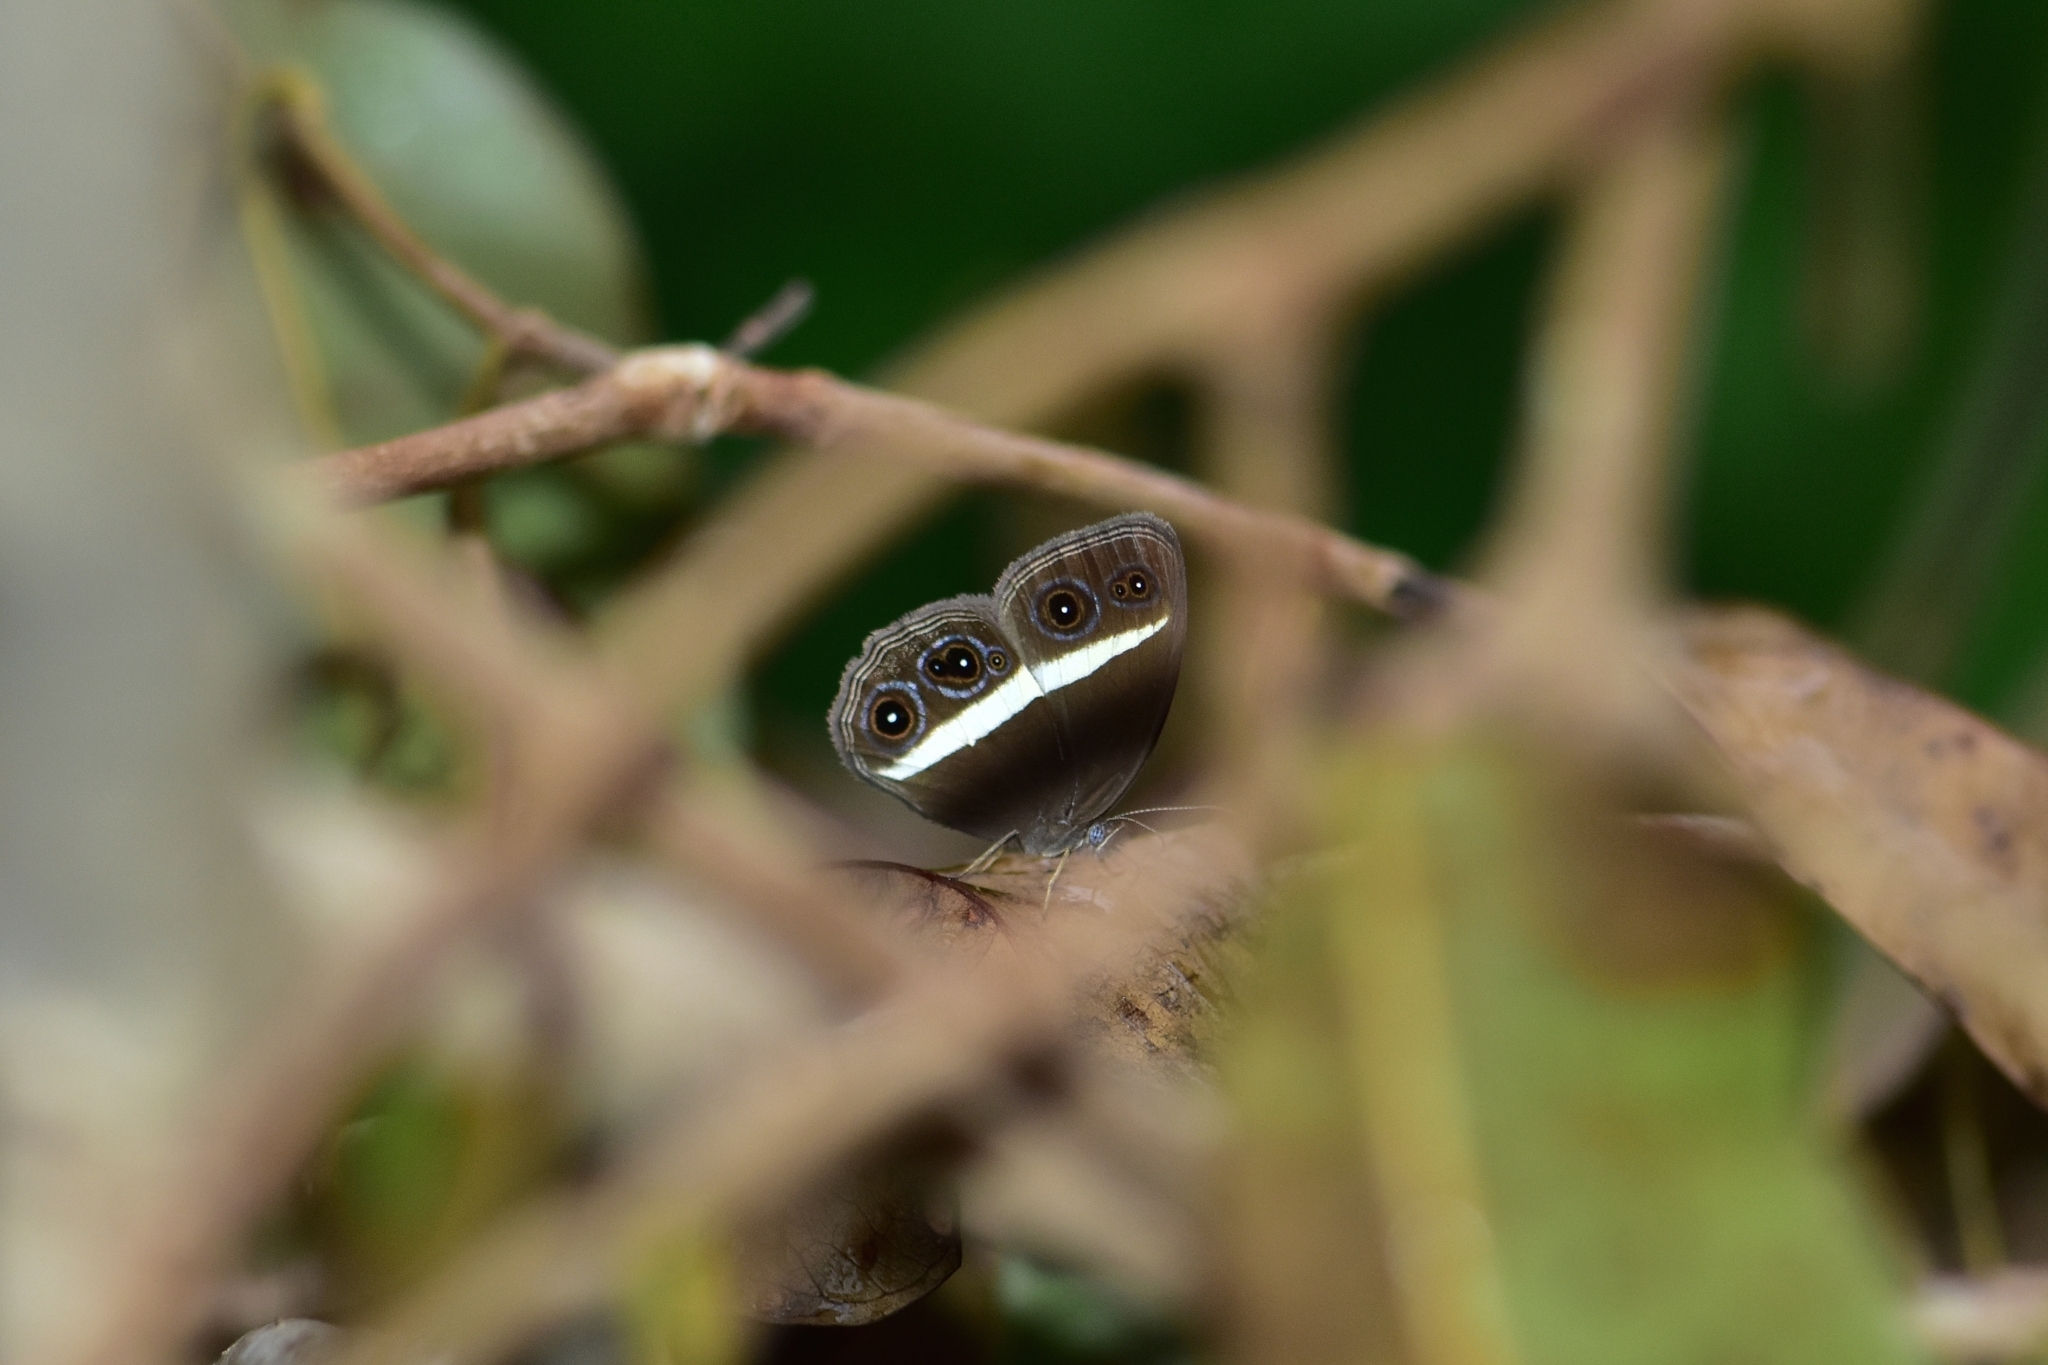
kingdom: Animalia
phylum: Arthropoda
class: Insecta
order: Lepidoptera
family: Nymphalidae
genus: Orsotriaena
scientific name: Orsotriaena medus
